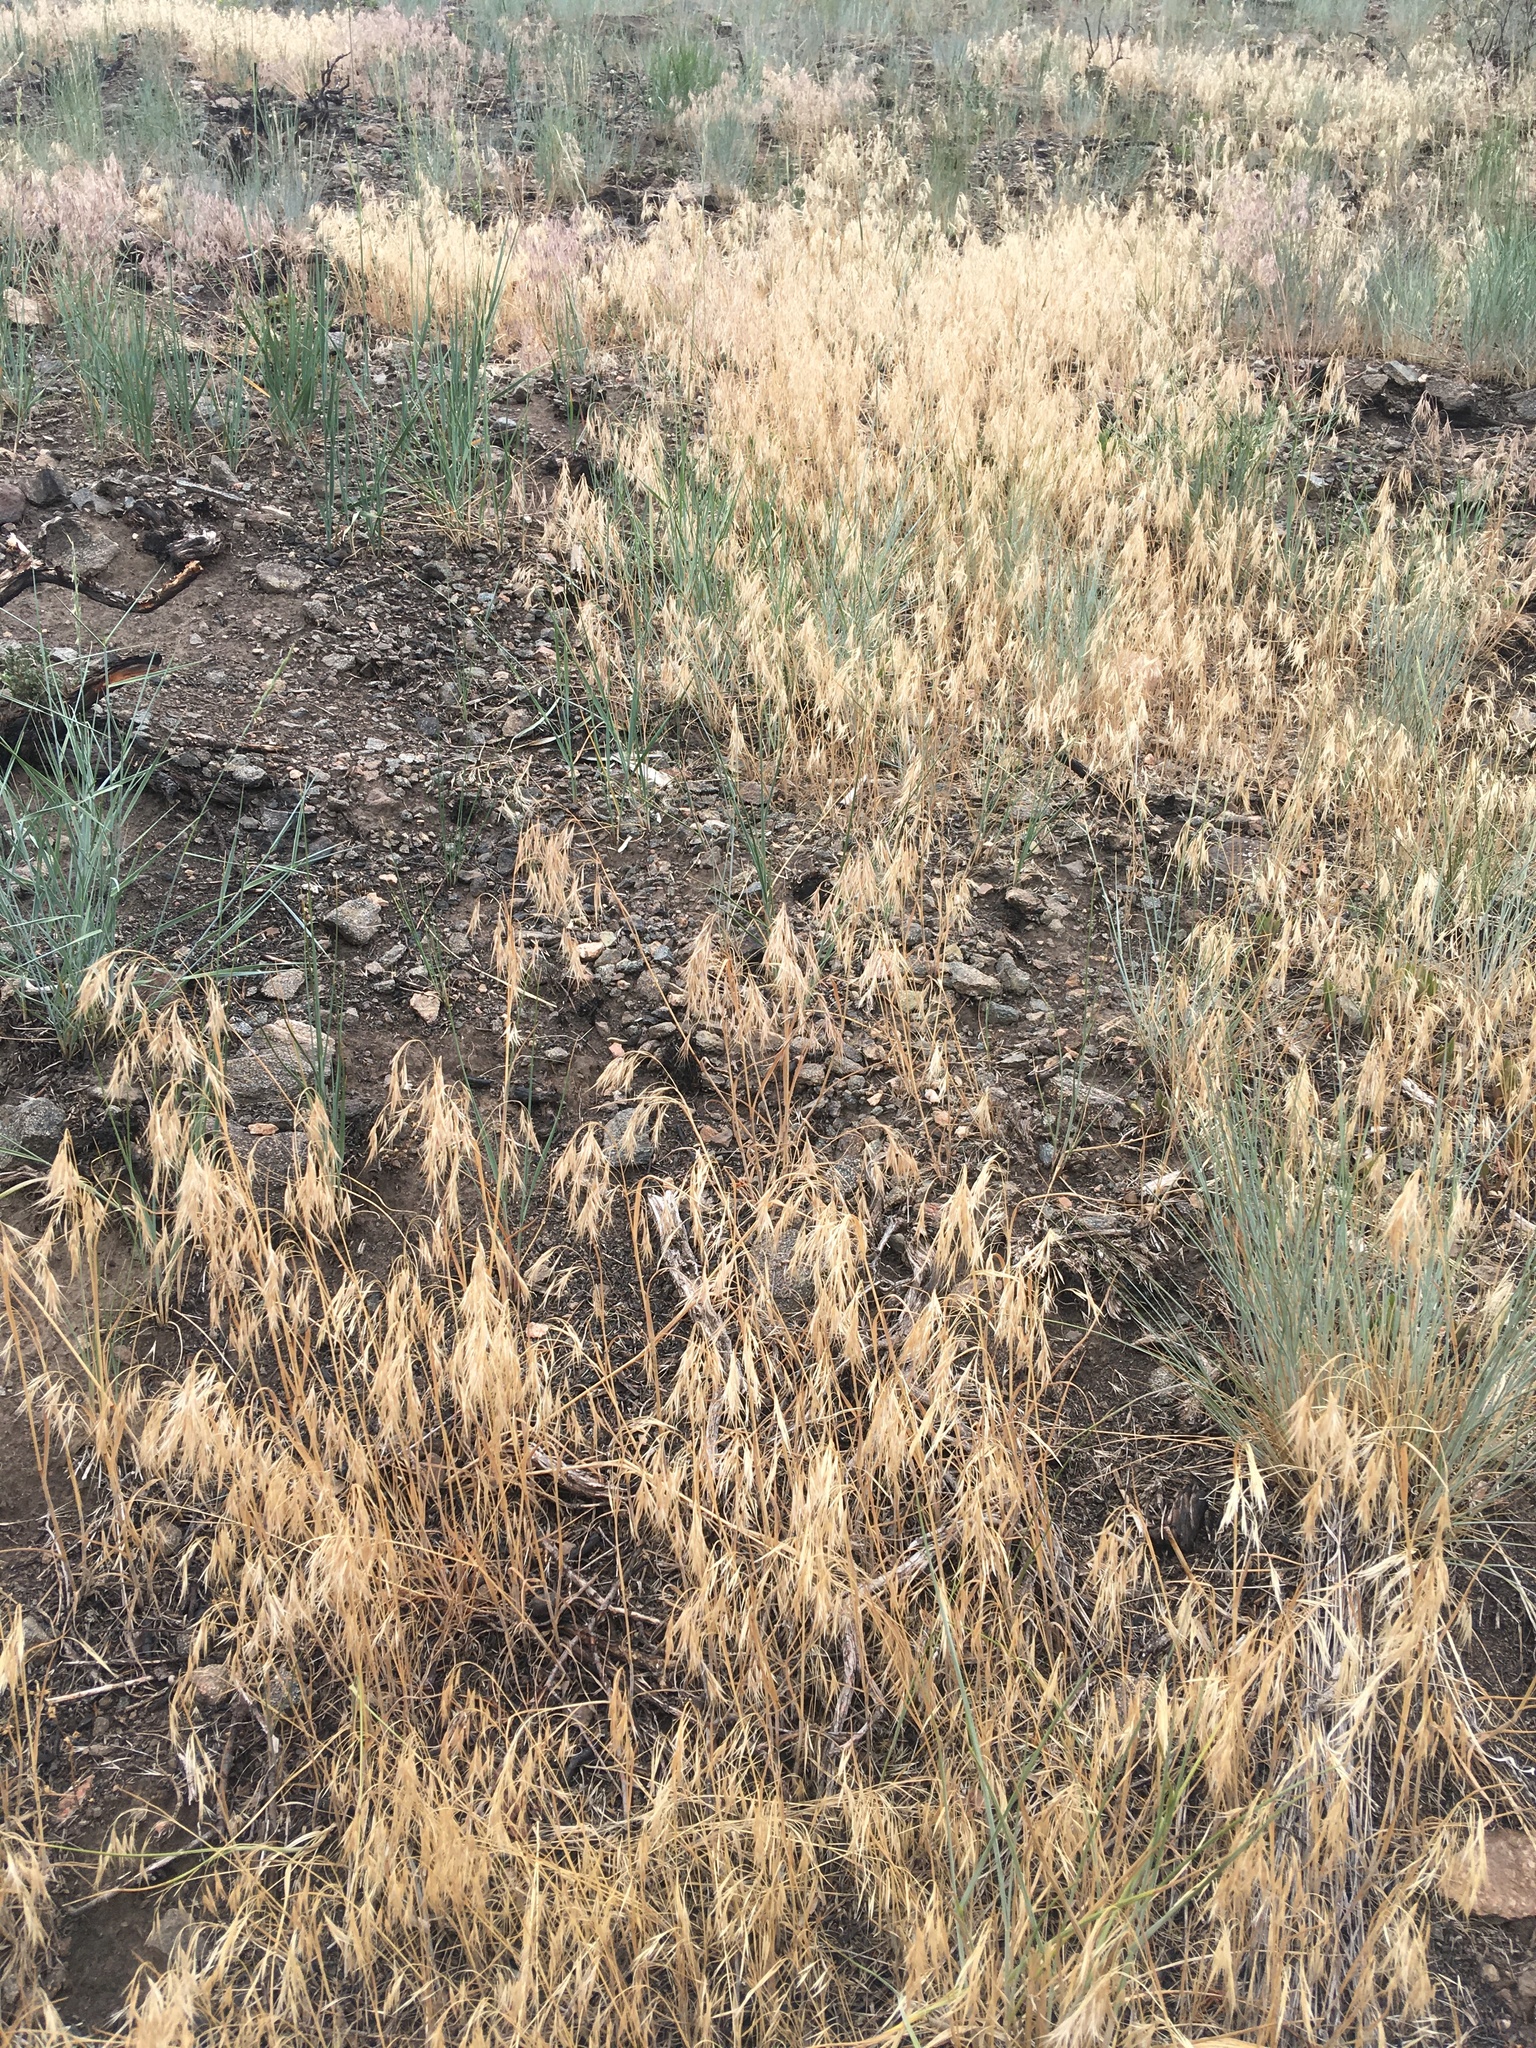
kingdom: Plantae
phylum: Tracheophyta
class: Liliopsida
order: Poales
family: Poaceae
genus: Bromus
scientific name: Bromus tectorum
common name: Cheatgrass
